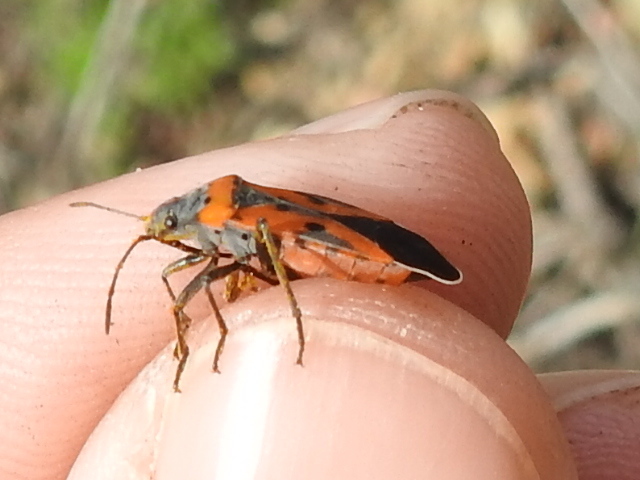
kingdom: Animalia
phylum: Arthropoda
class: Insecta
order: Hemiptera
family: Lygaeidae
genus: Lygaeus
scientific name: Lygaeus reclivatus
